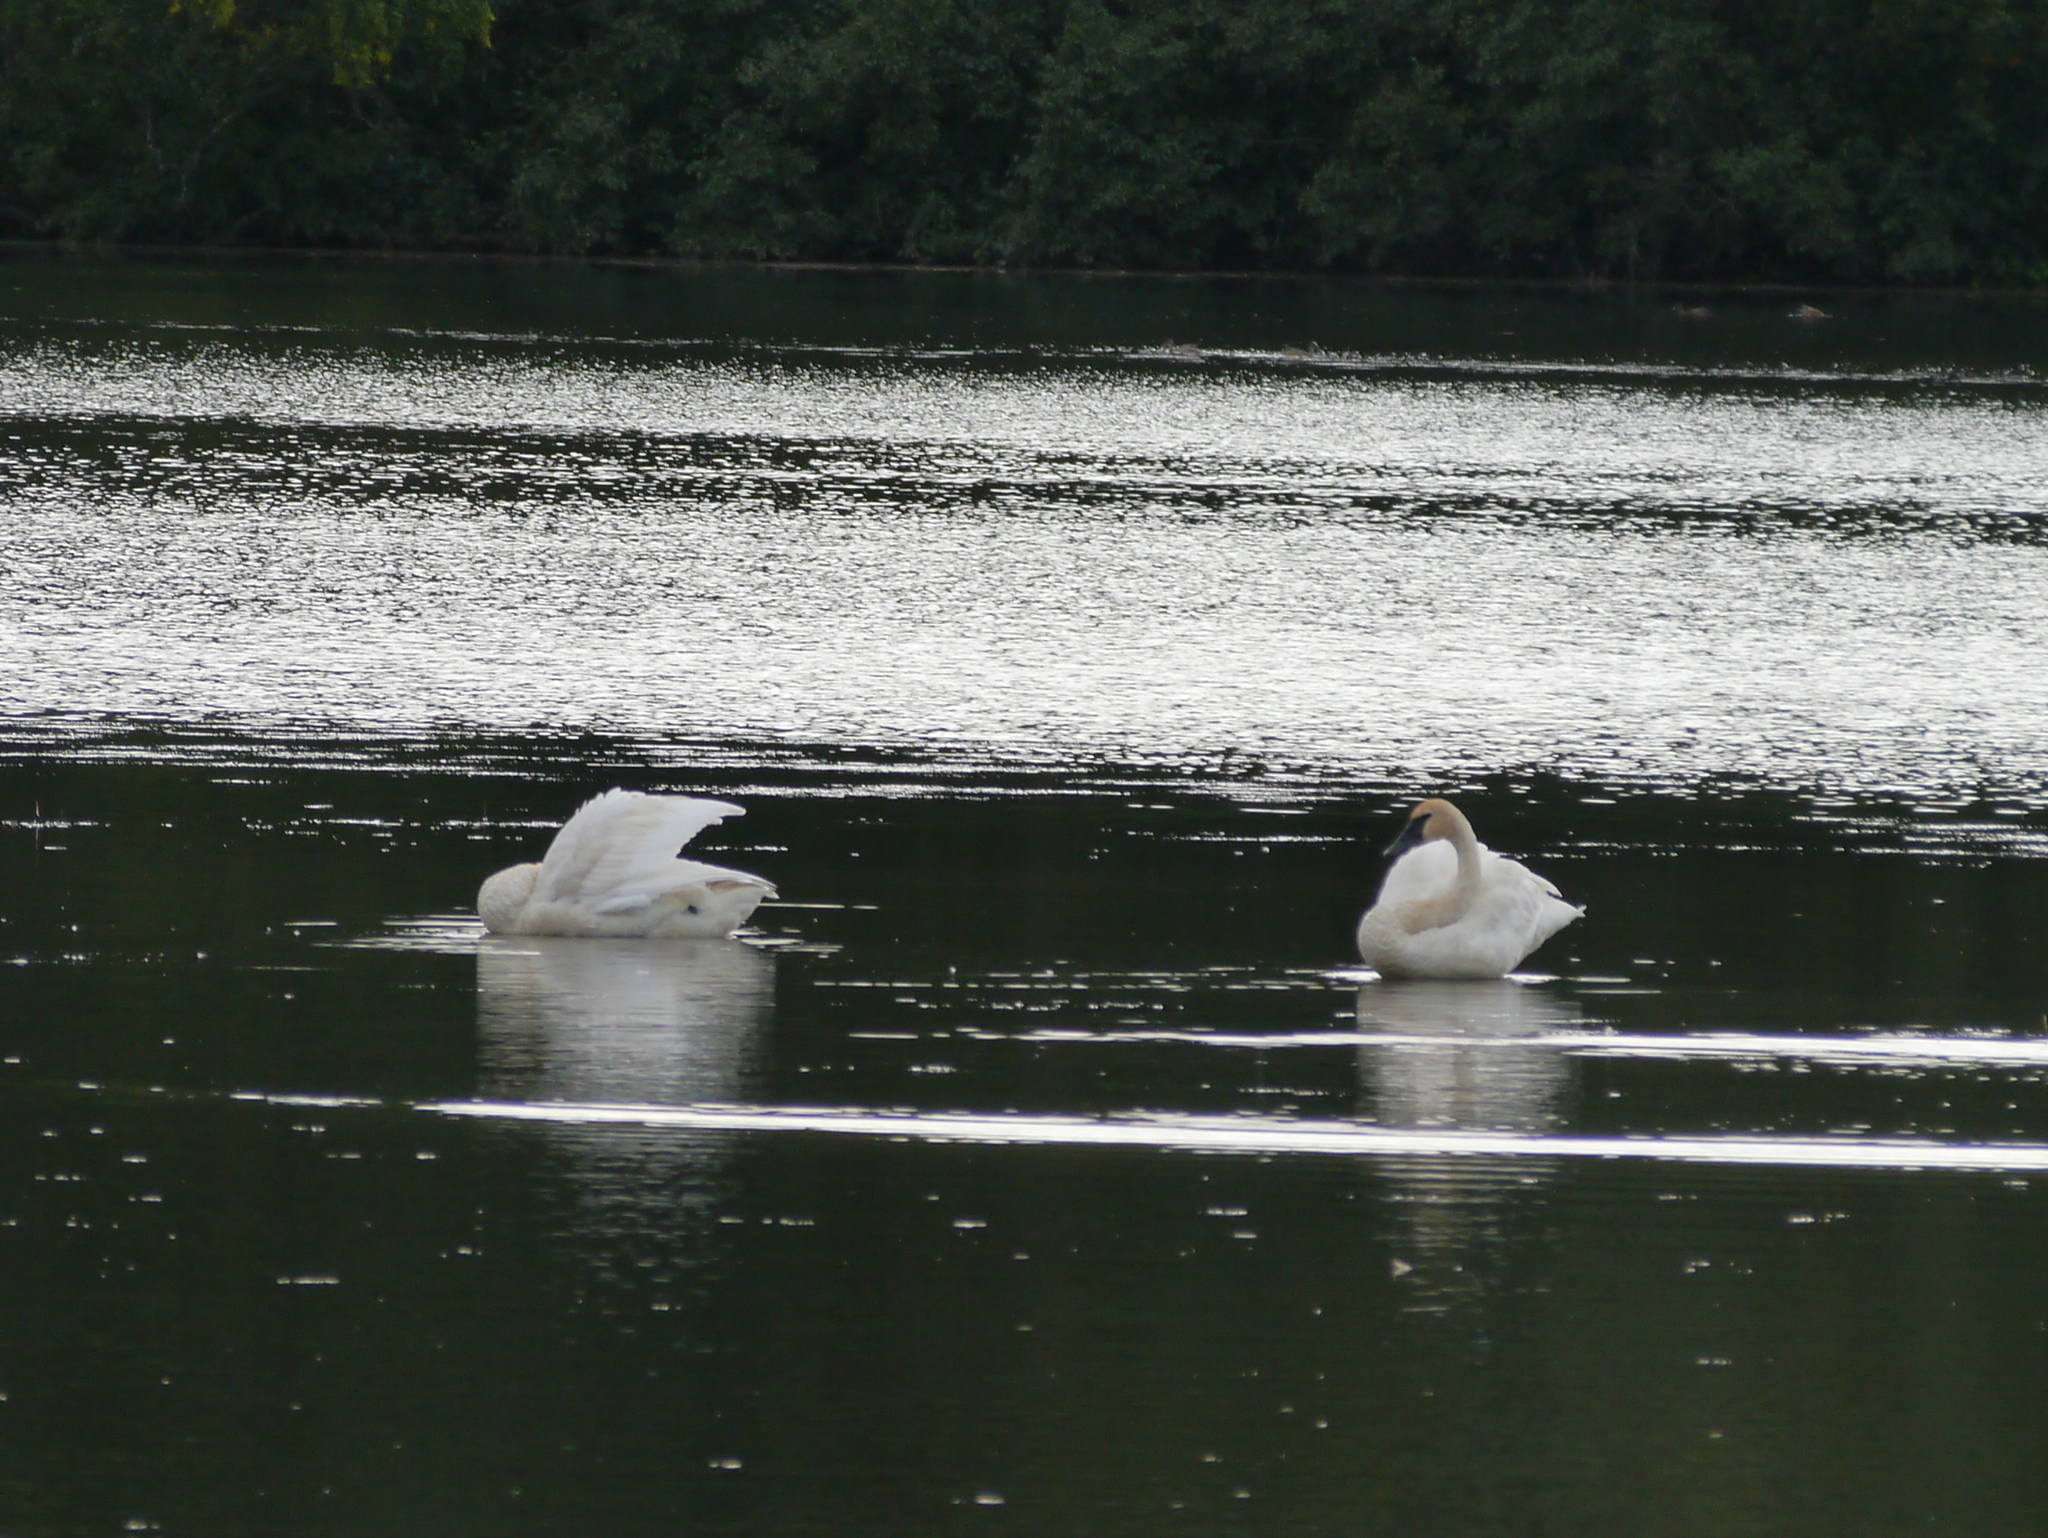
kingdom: Animalia
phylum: Chordata
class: Aves
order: Anseriformes
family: Anatidae
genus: Cygnus
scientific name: Cygnus buccinator
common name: Trumpeter swan
